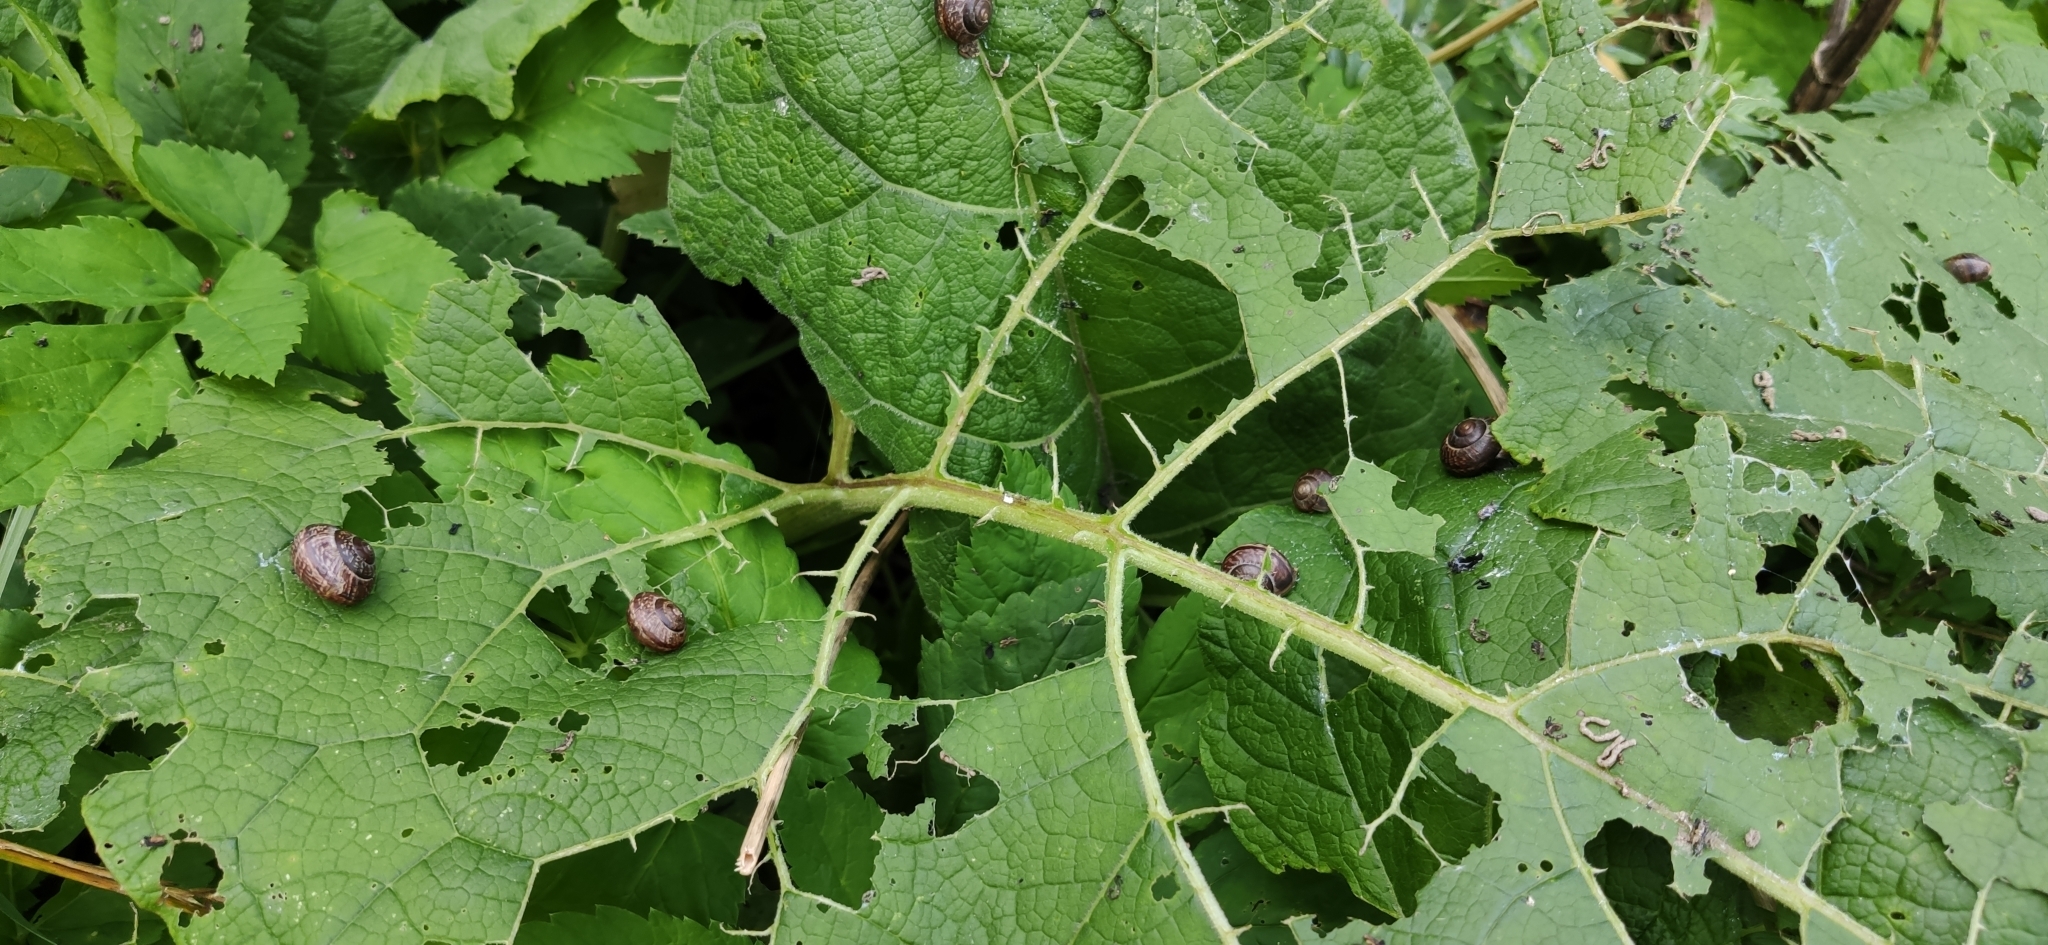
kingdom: Animalia
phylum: Mollusca
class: Gastropoda
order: Stylommatophora
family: Helicidae
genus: Arianta
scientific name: Arianta arbustorum
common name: Copse snail
